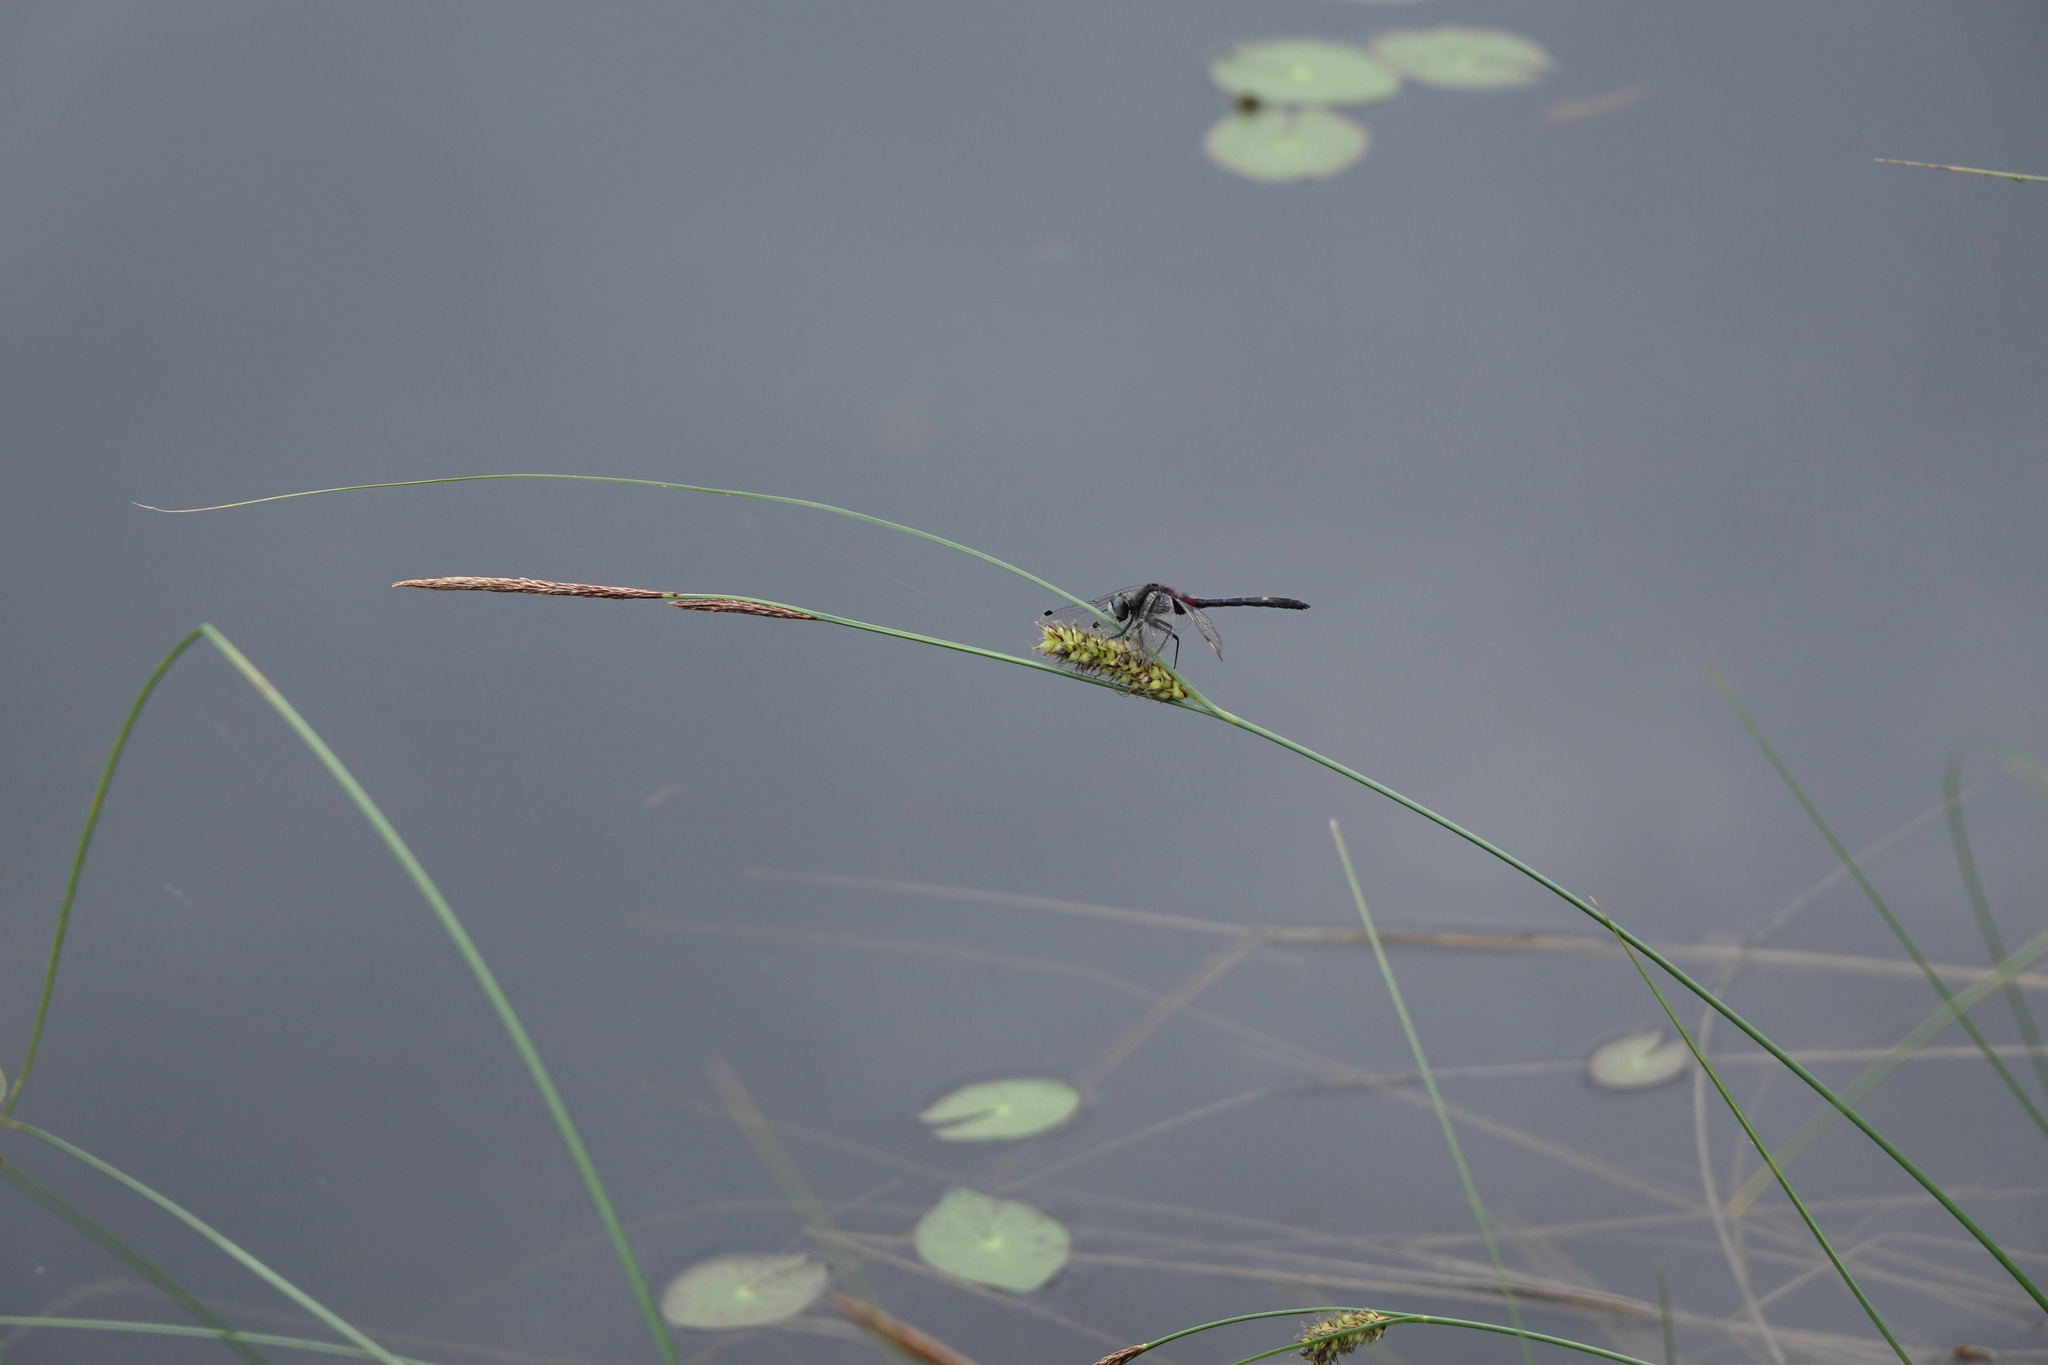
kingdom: Animalia
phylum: Arthropoda
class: Insecta
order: Odonata
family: Libellulidae
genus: Leucorrhinia
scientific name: Leucorrhinia orientalis
